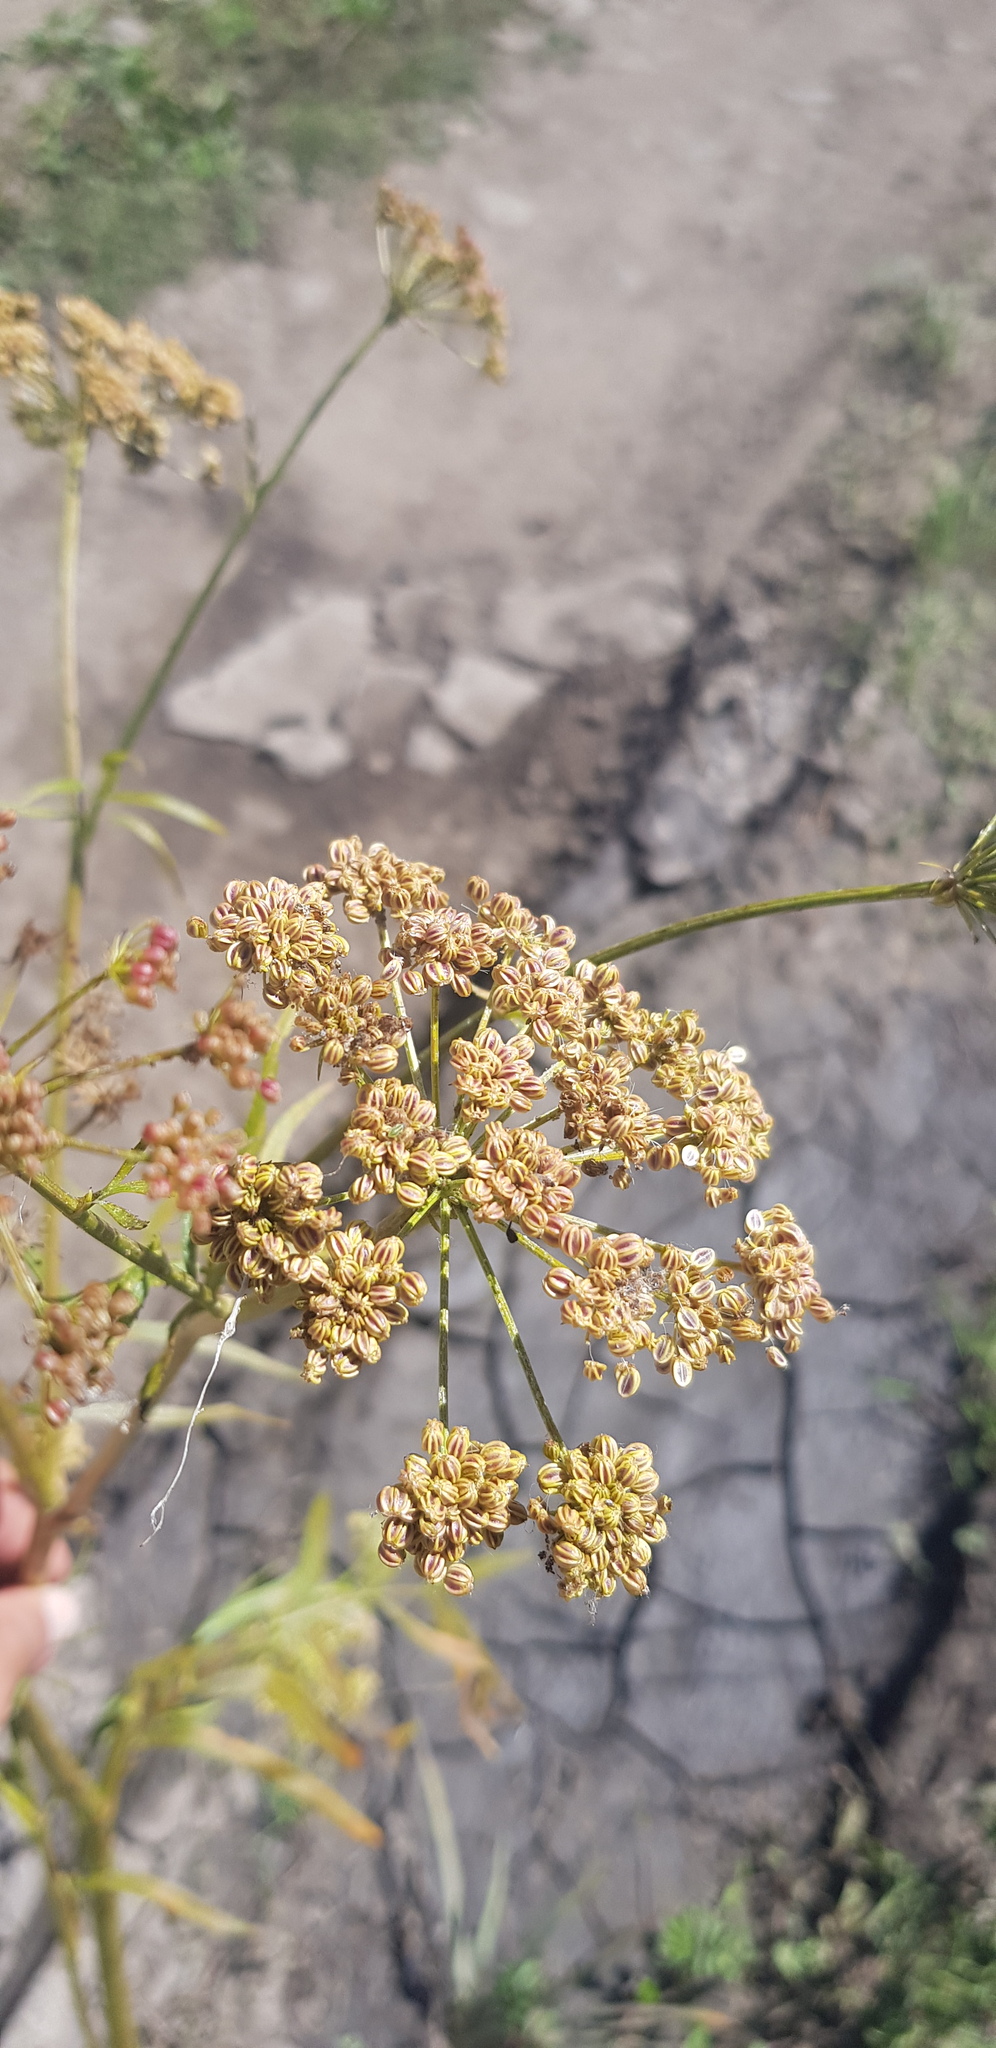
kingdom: Plantae
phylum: Tracheophyta
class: Magnoliopsida
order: Apiales
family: Apiaceae
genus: Sium
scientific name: Sium suave
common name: Hemlock water-parsnip
